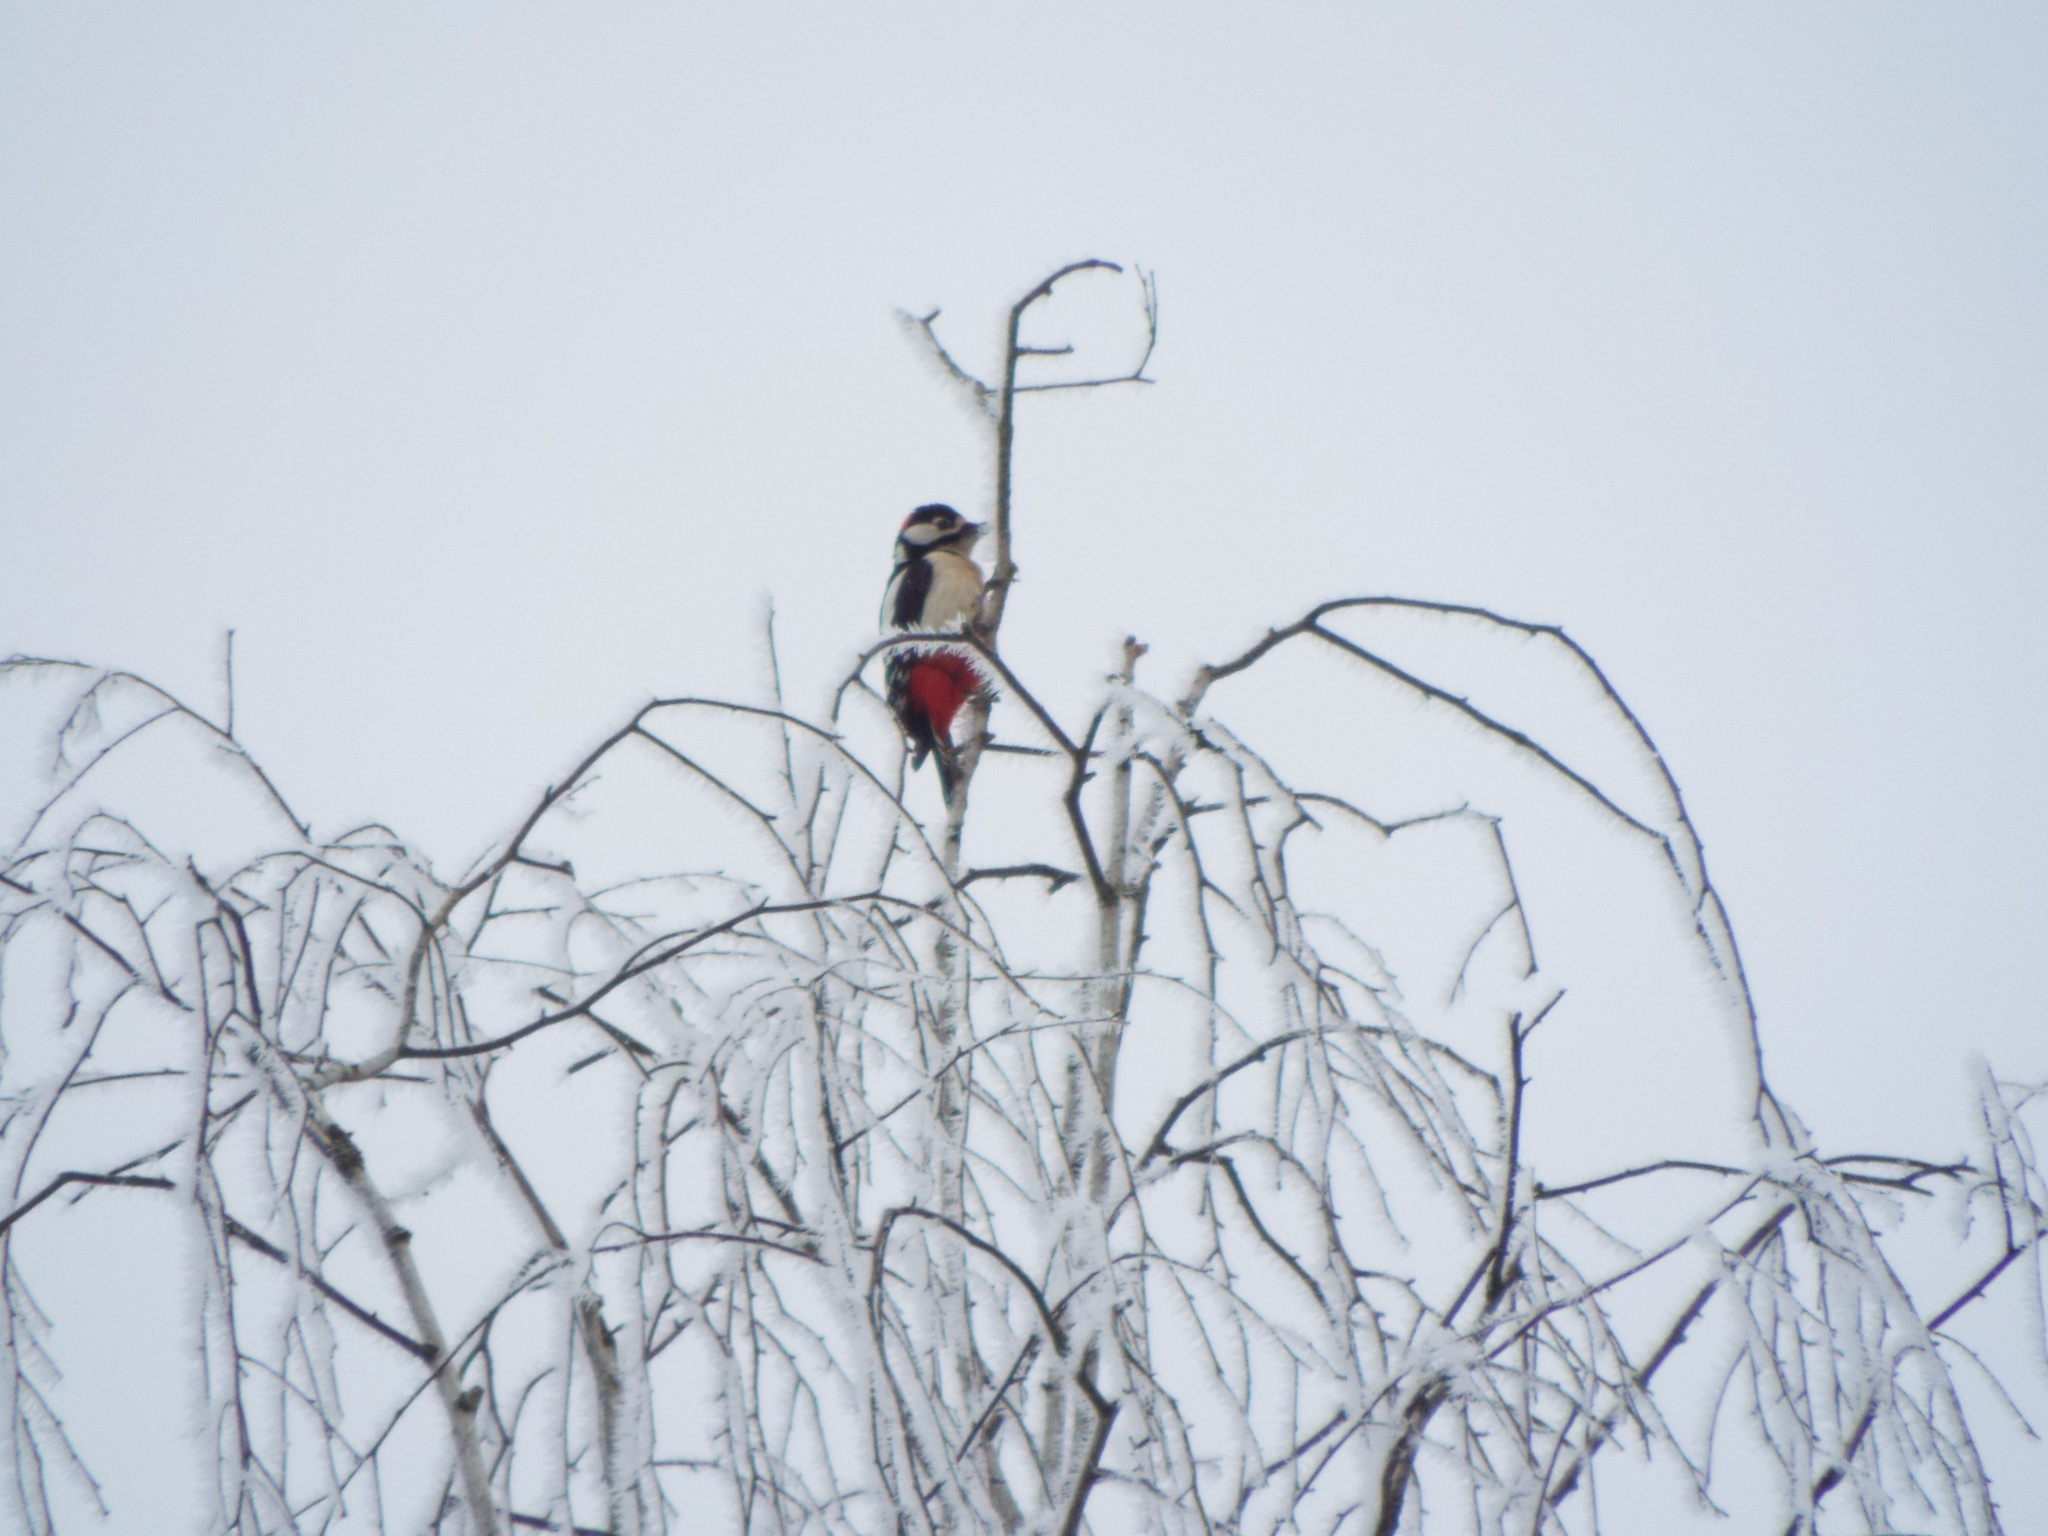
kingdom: Animalia
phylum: Chordata
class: Aves
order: Piciformes
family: Picidae
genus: Dendrocopos
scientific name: Dendrocopos major
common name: Great spotted woodpecker
